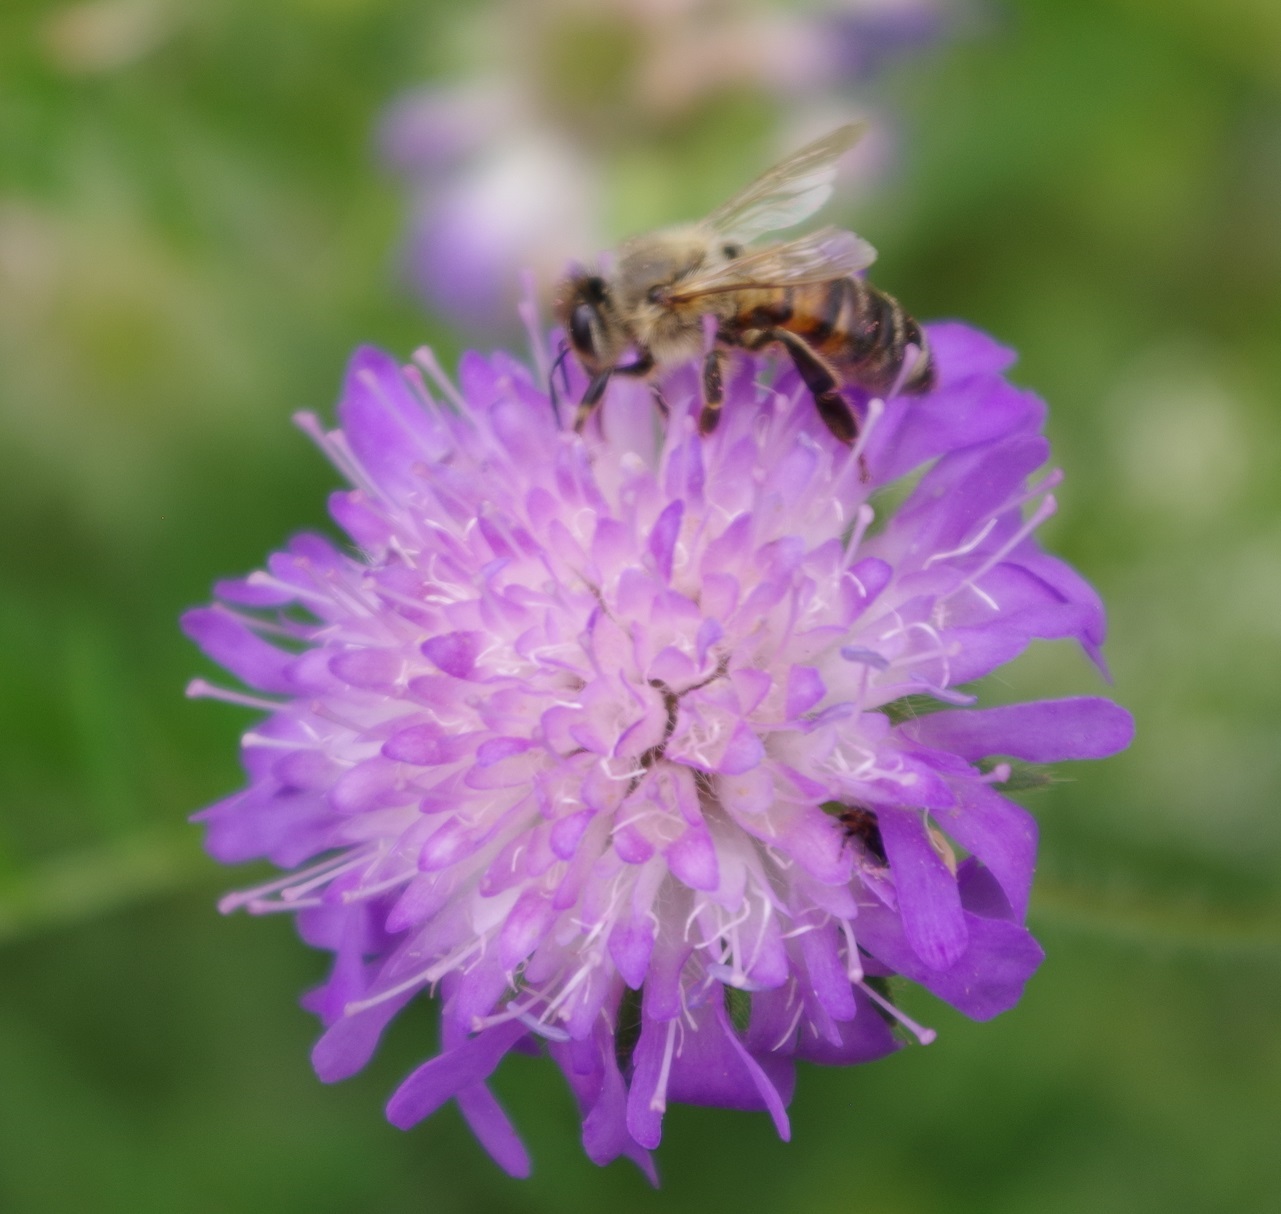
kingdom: Animalia
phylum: Arthropoda
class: Insecta
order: Hymenoptera
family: Apidae
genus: Apis
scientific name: Apis mellifera
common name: Honey bee
